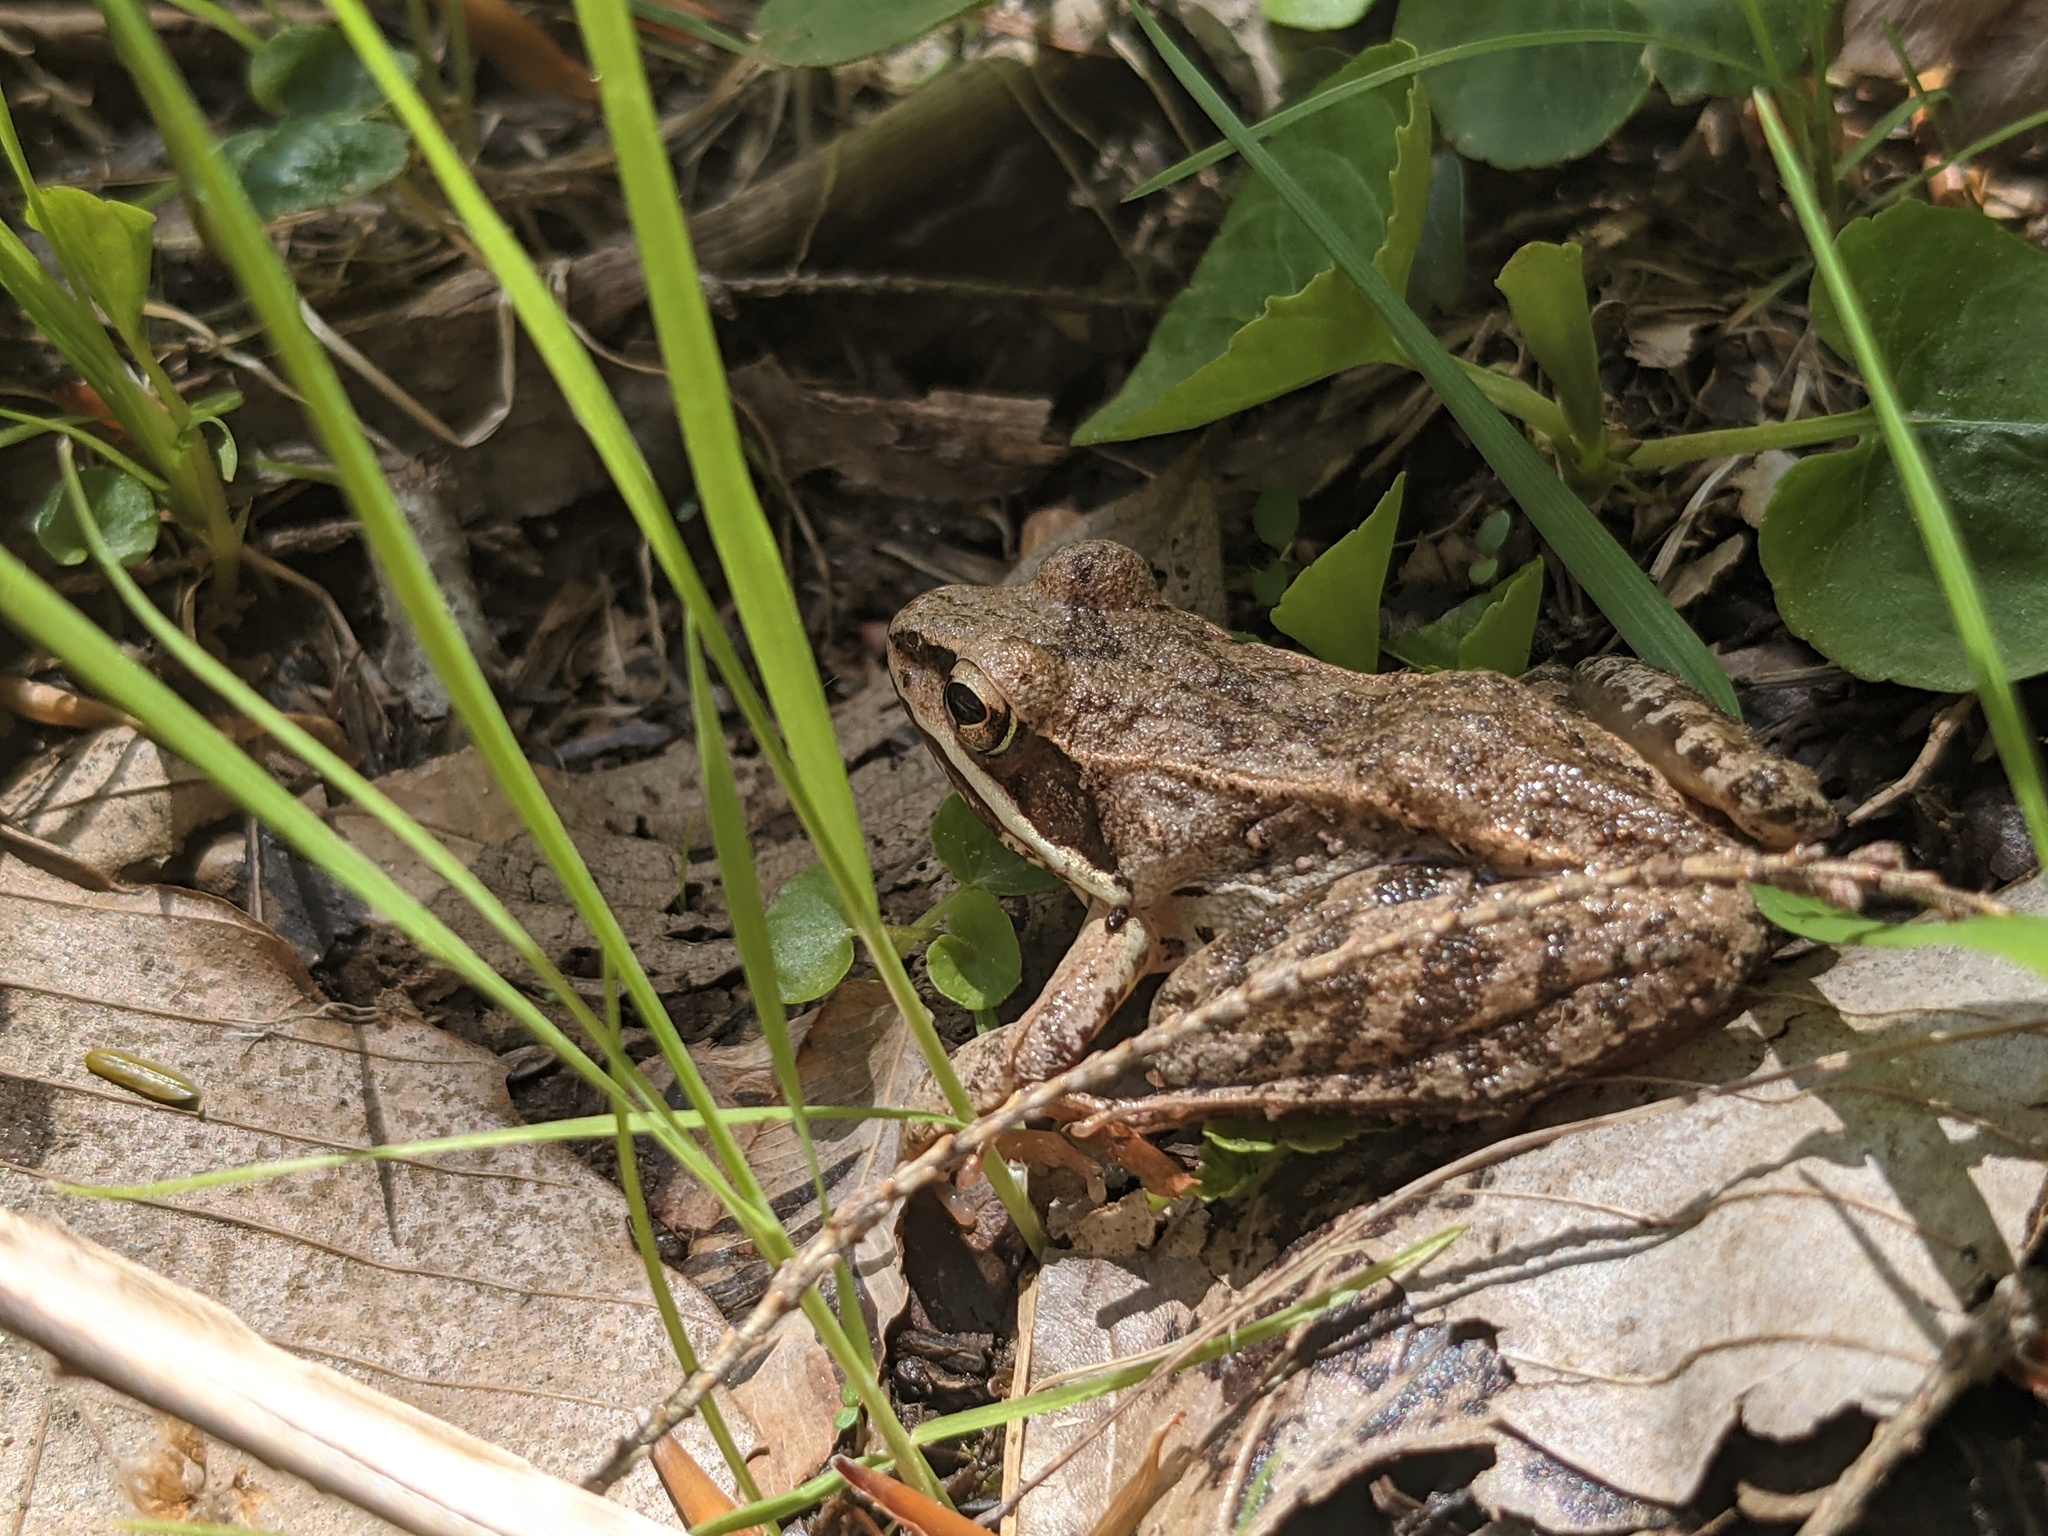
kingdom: Animalia
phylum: Chordata
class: Amphibia
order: Anura
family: Ranidae
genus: Lithobates
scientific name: Lithobates sylvaticus
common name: Wood frog
